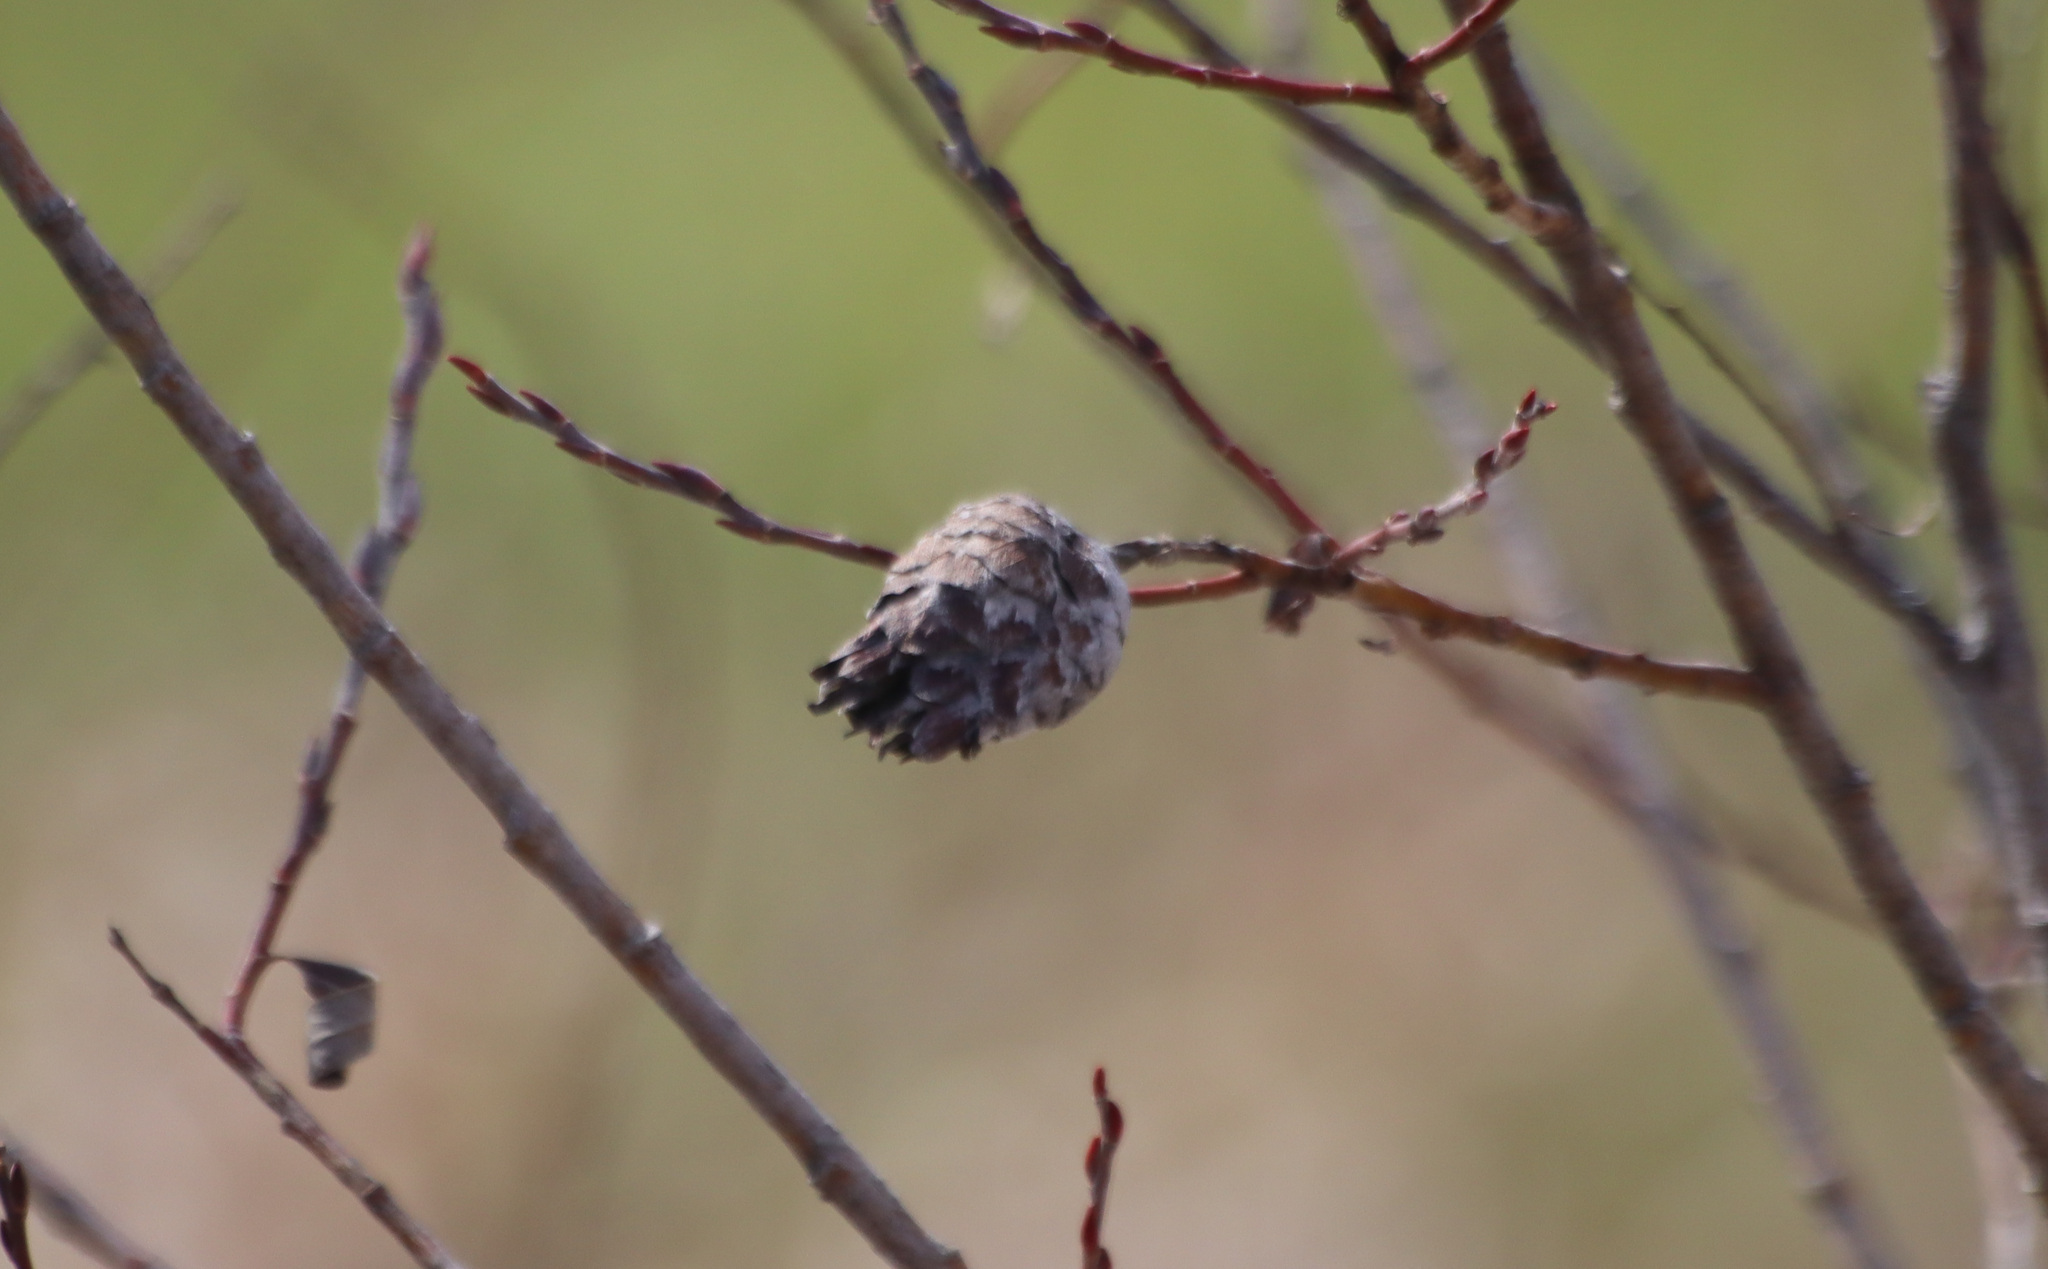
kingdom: Animalia
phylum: Arthropoda
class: Insecta
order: Diptera
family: Cecidomyiidae
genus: Rabdophaga
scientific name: Rabdophaga strobiloides
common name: Willow pinecone gall midge
